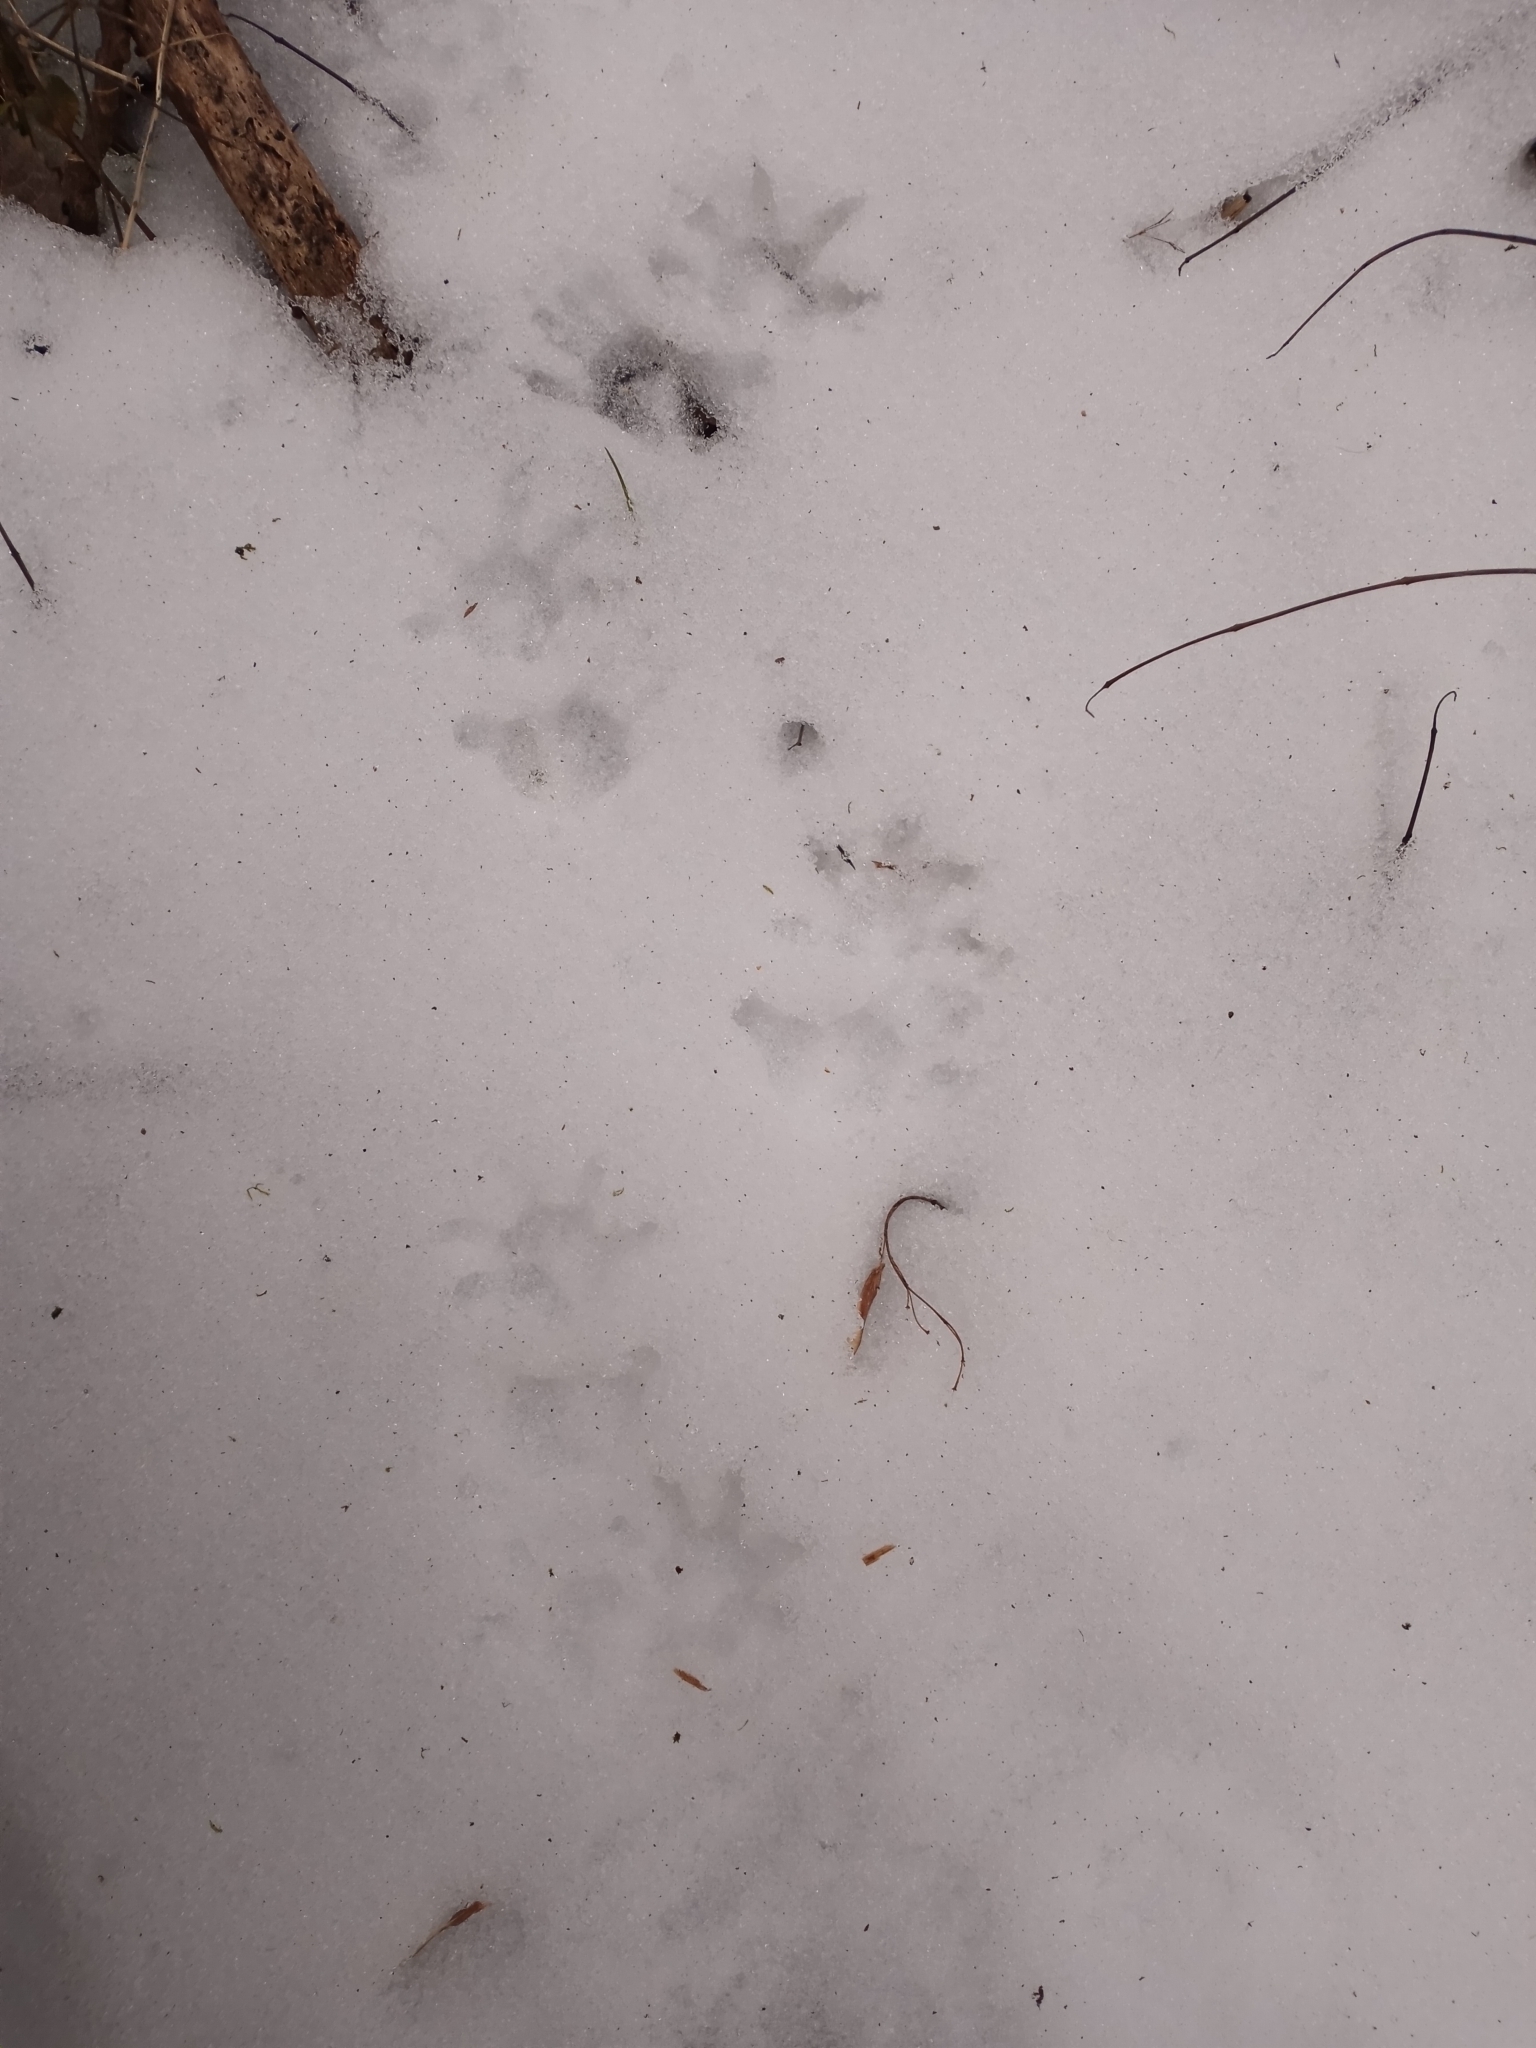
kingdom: Animalia
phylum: Chordata
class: Mammalia
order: Didelphimorphia
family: Didelphidae
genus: Didelphis
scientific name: Didelphis virginiana
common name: Virginia opossum
